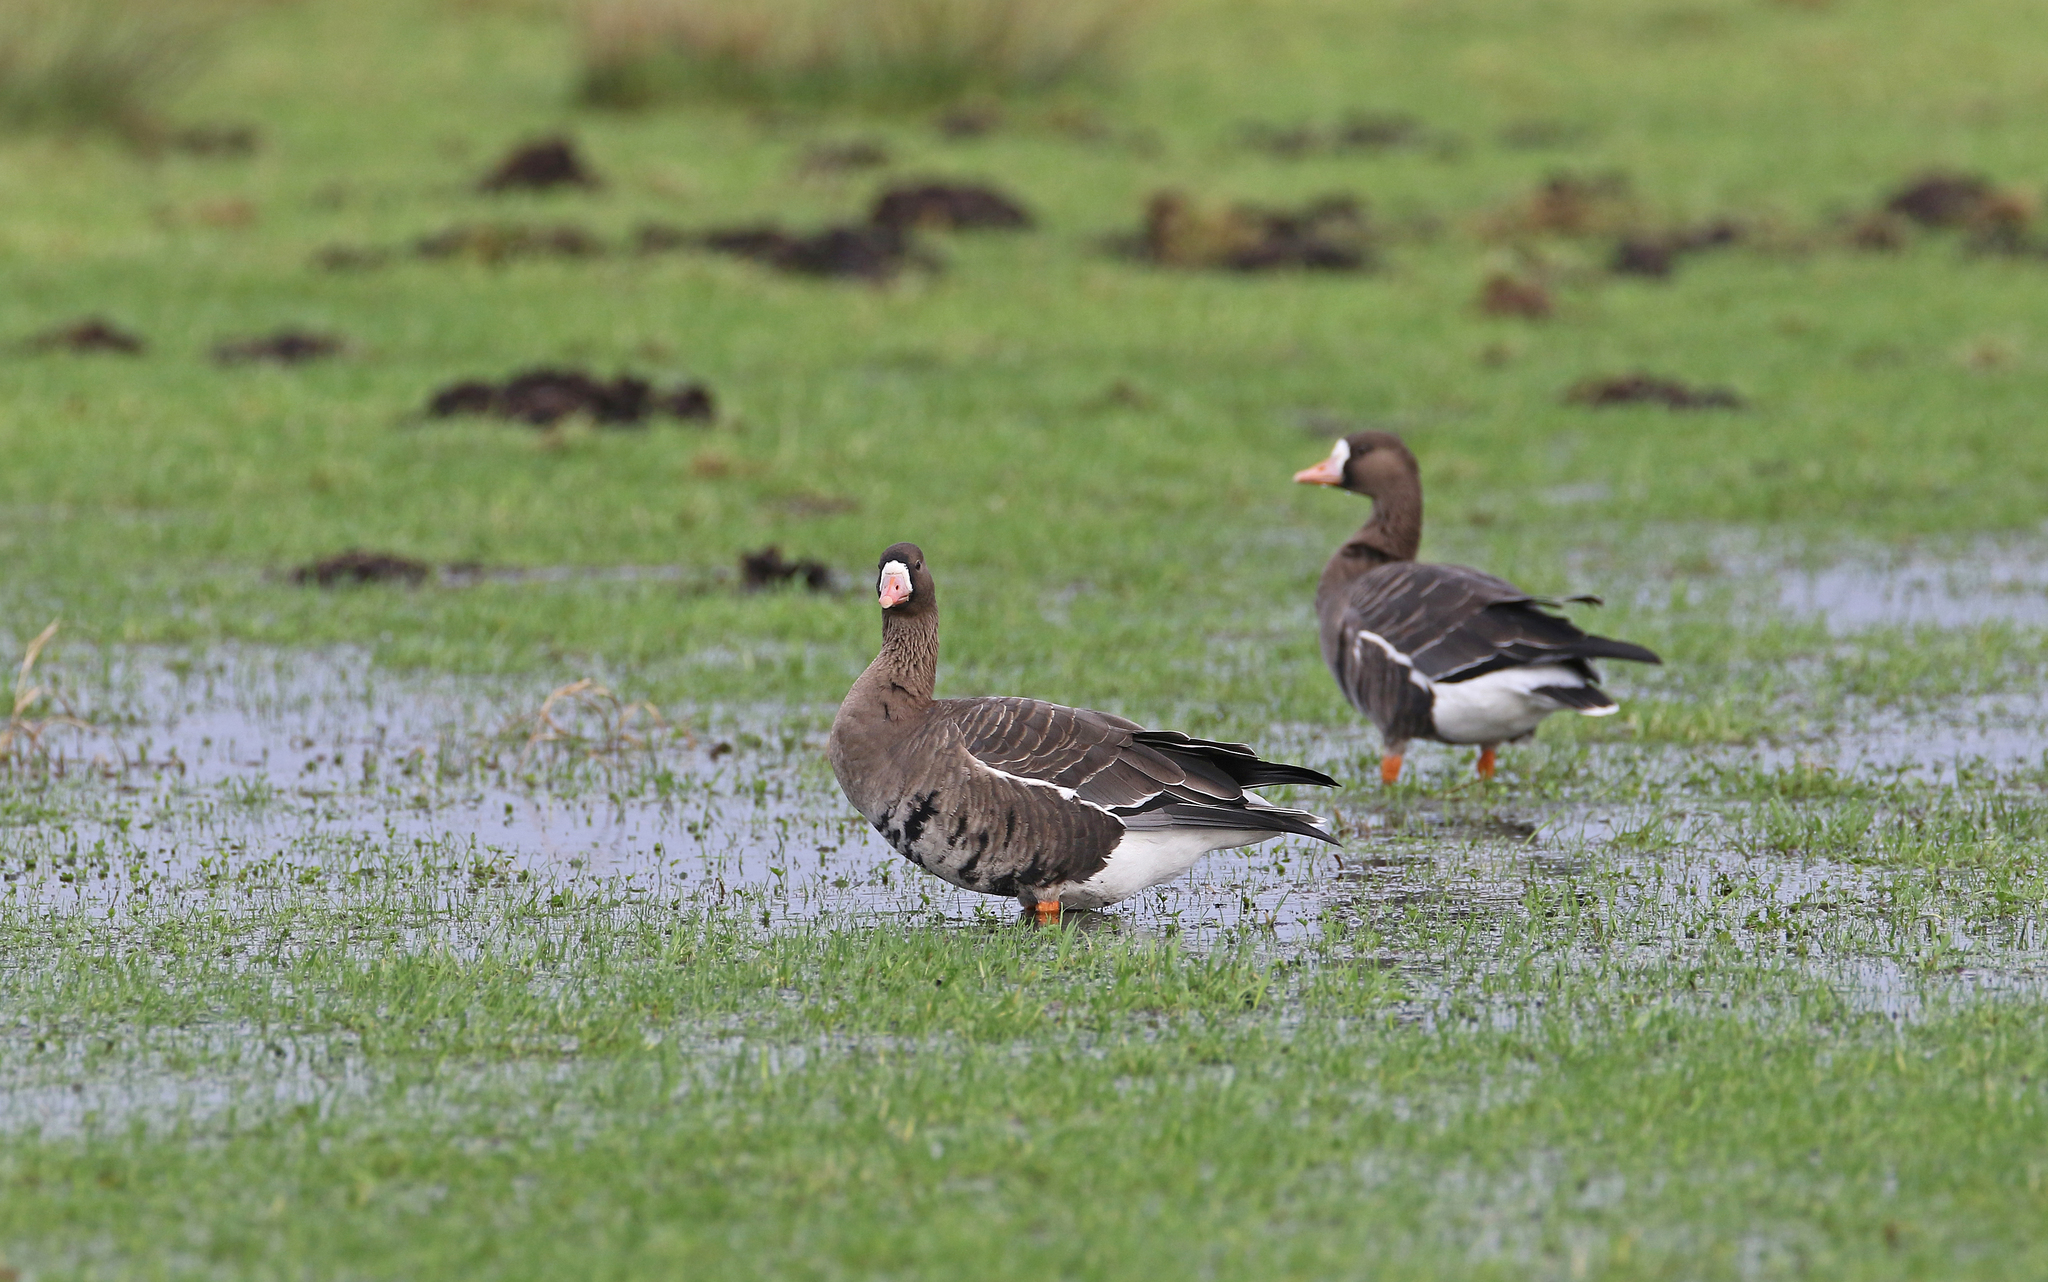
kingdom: Animalia
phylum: Chordata
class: Aves
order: Anseriformes
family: Anatidae
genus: Anser
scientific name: Anser albifrons
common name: Greater white-fronted goose
